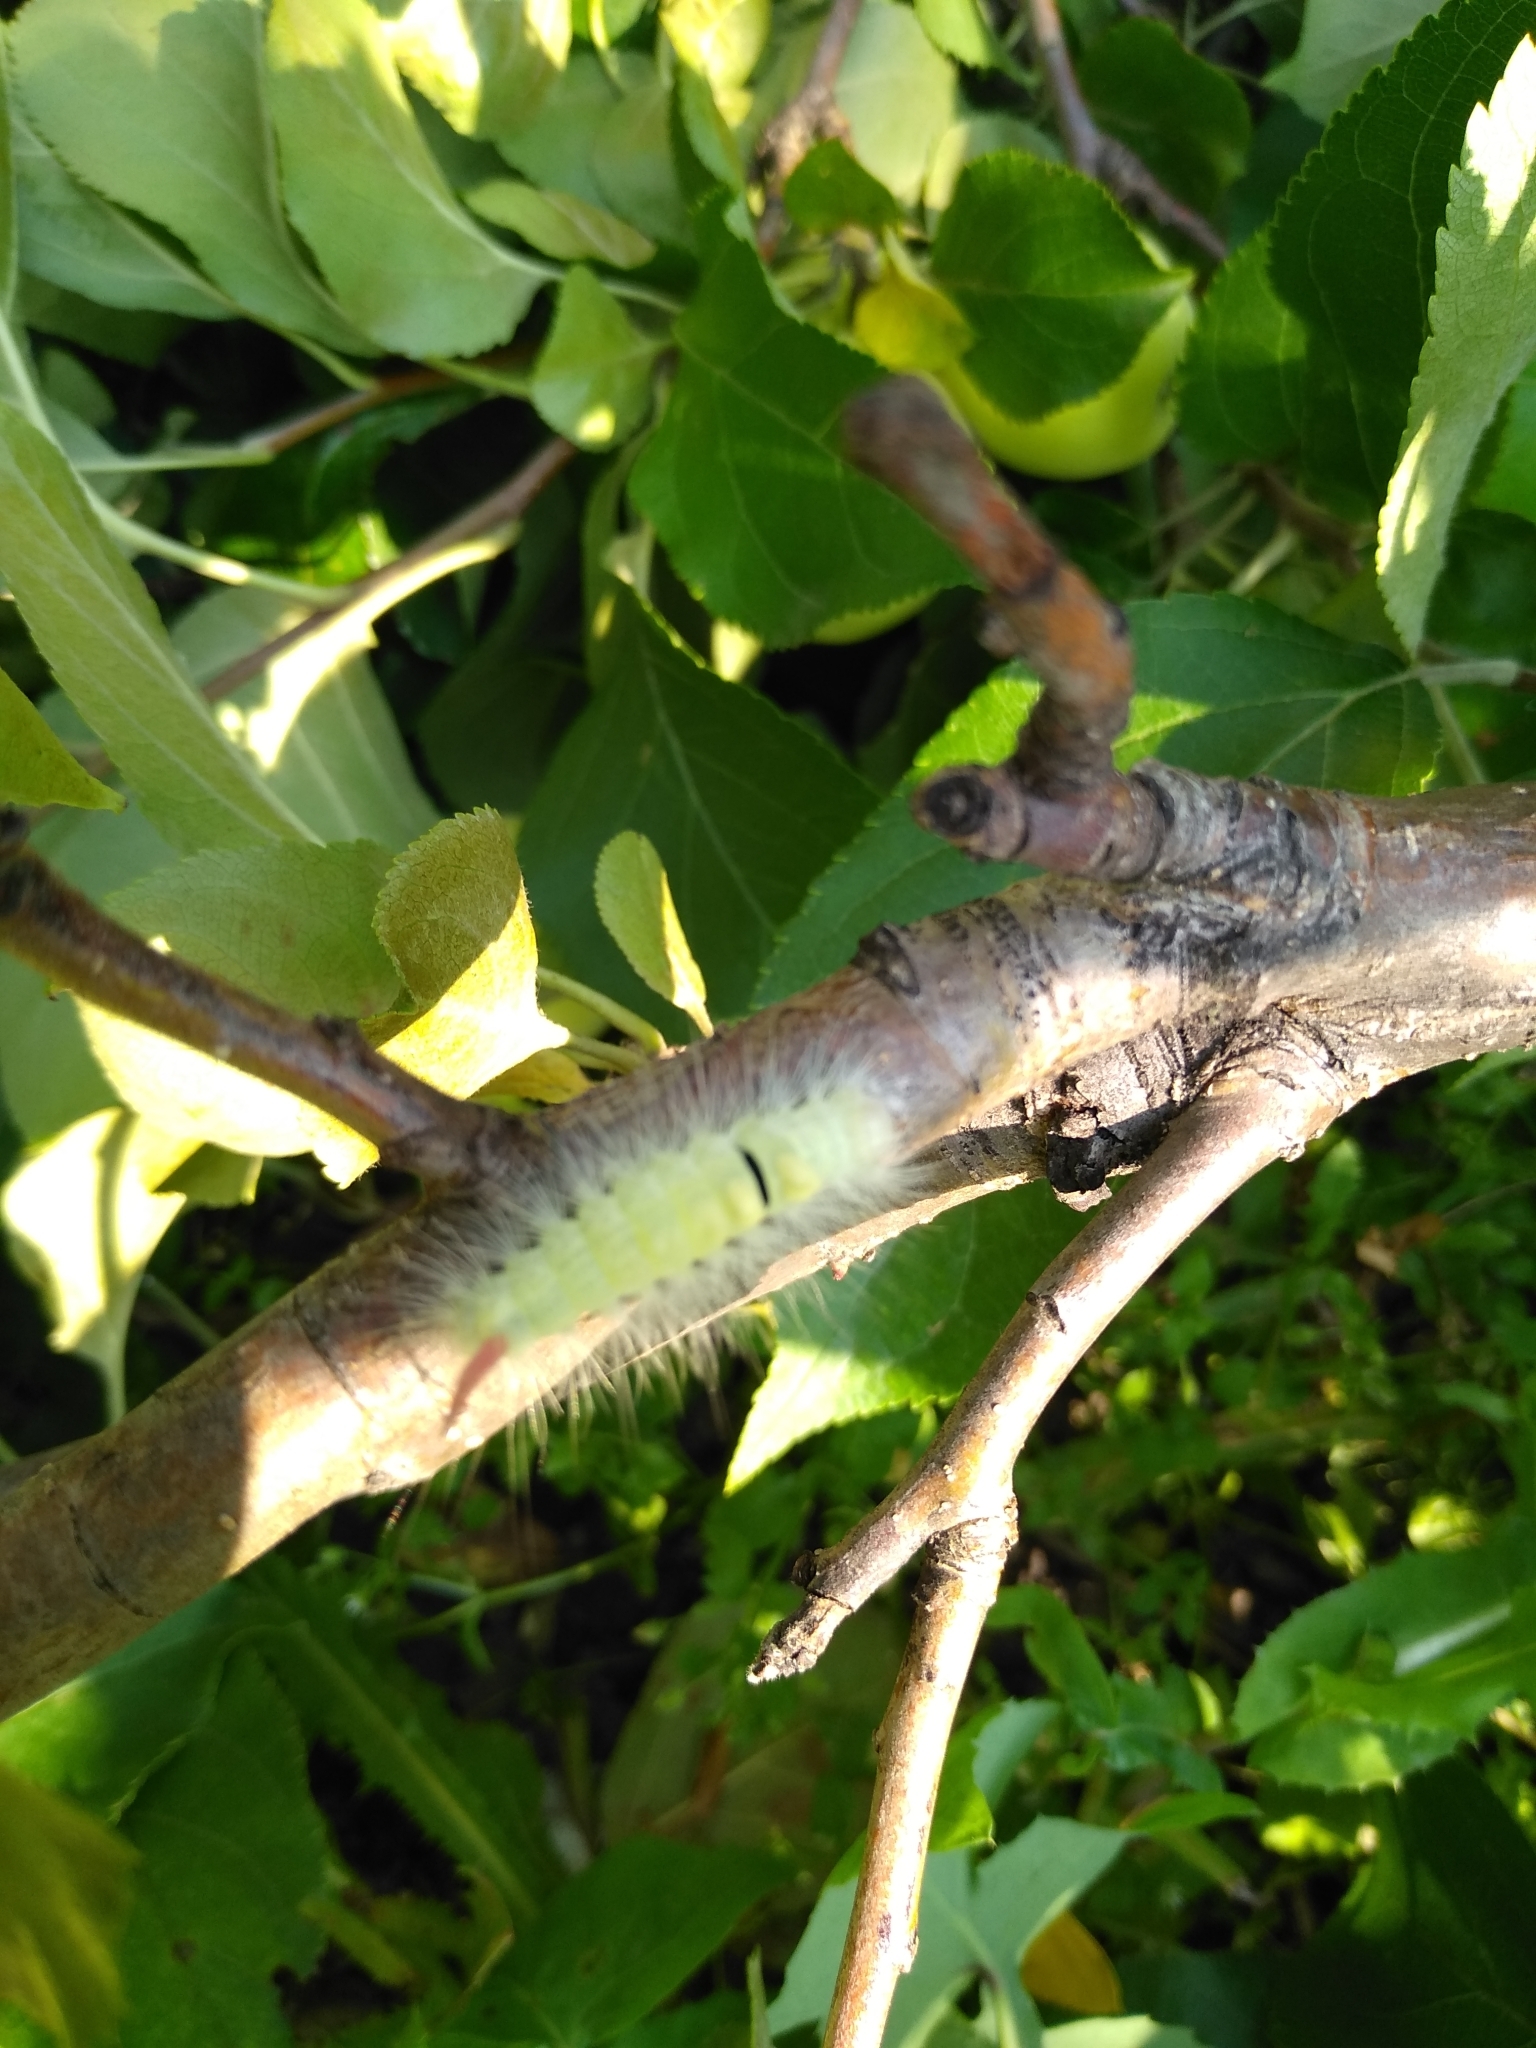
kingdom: Animalia
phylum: Arthropoda
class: Insecta
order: Lepidoptera
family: Erebidae
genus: Calliteara
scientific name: Calliteara pudibunda
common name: Pale tussock
